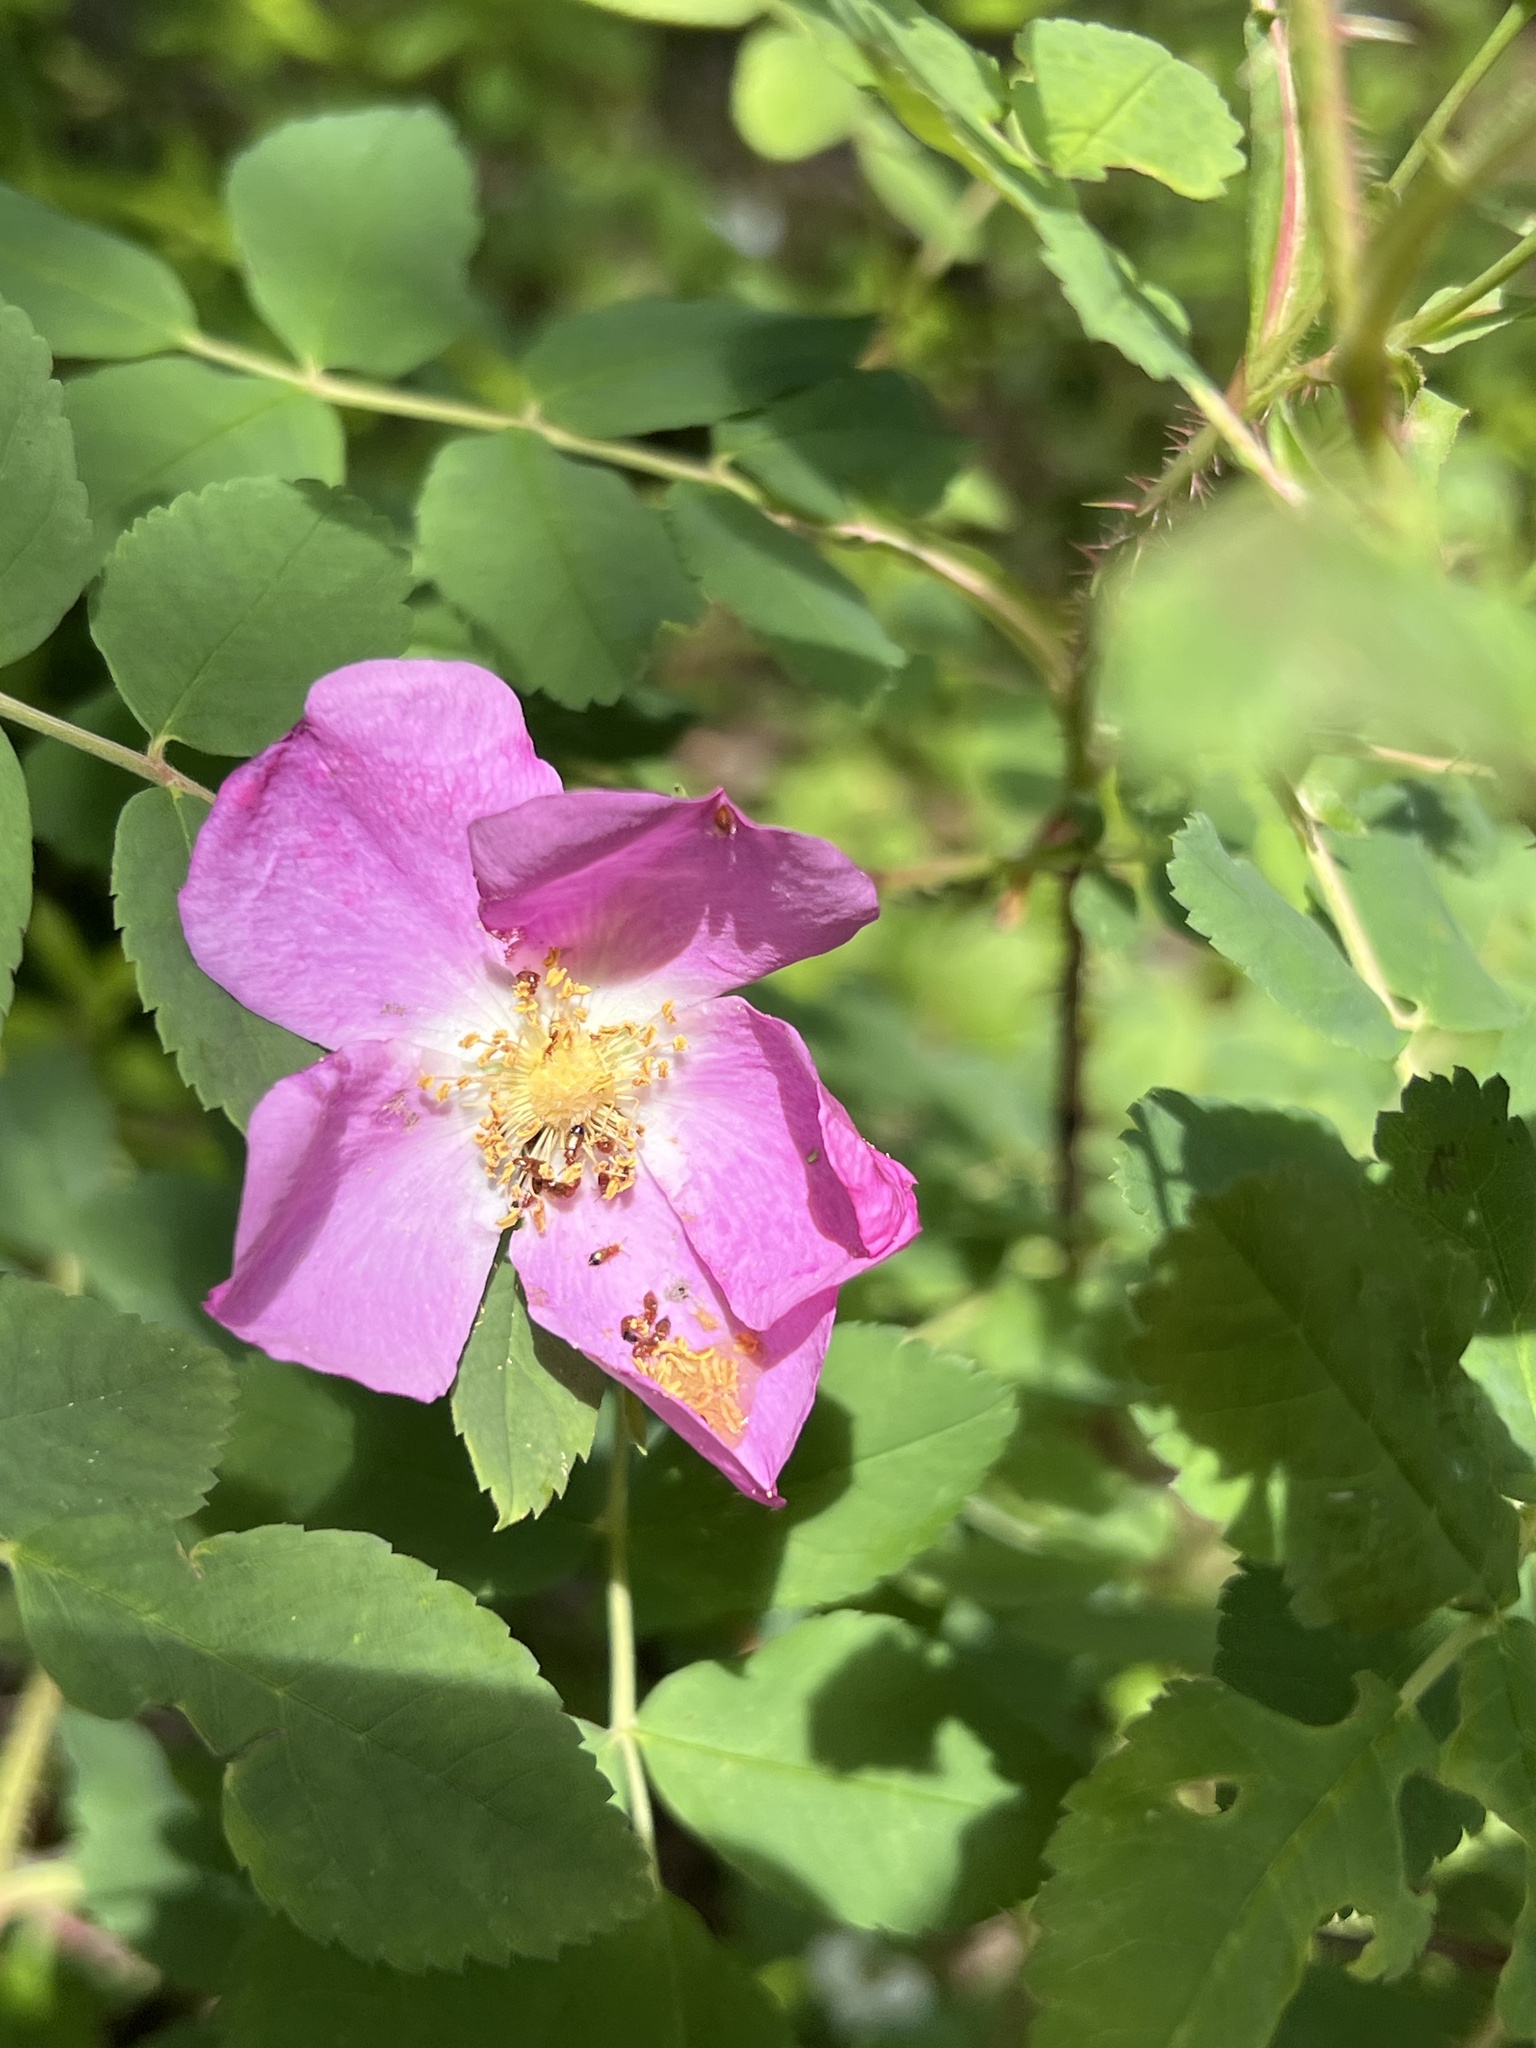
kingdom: Plantae
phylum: Tracheophyta
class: Magnoliopsida
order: Rosales
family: Rosaceae
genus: Rosa
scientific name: Rosa acicularis
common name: Prickly rose
